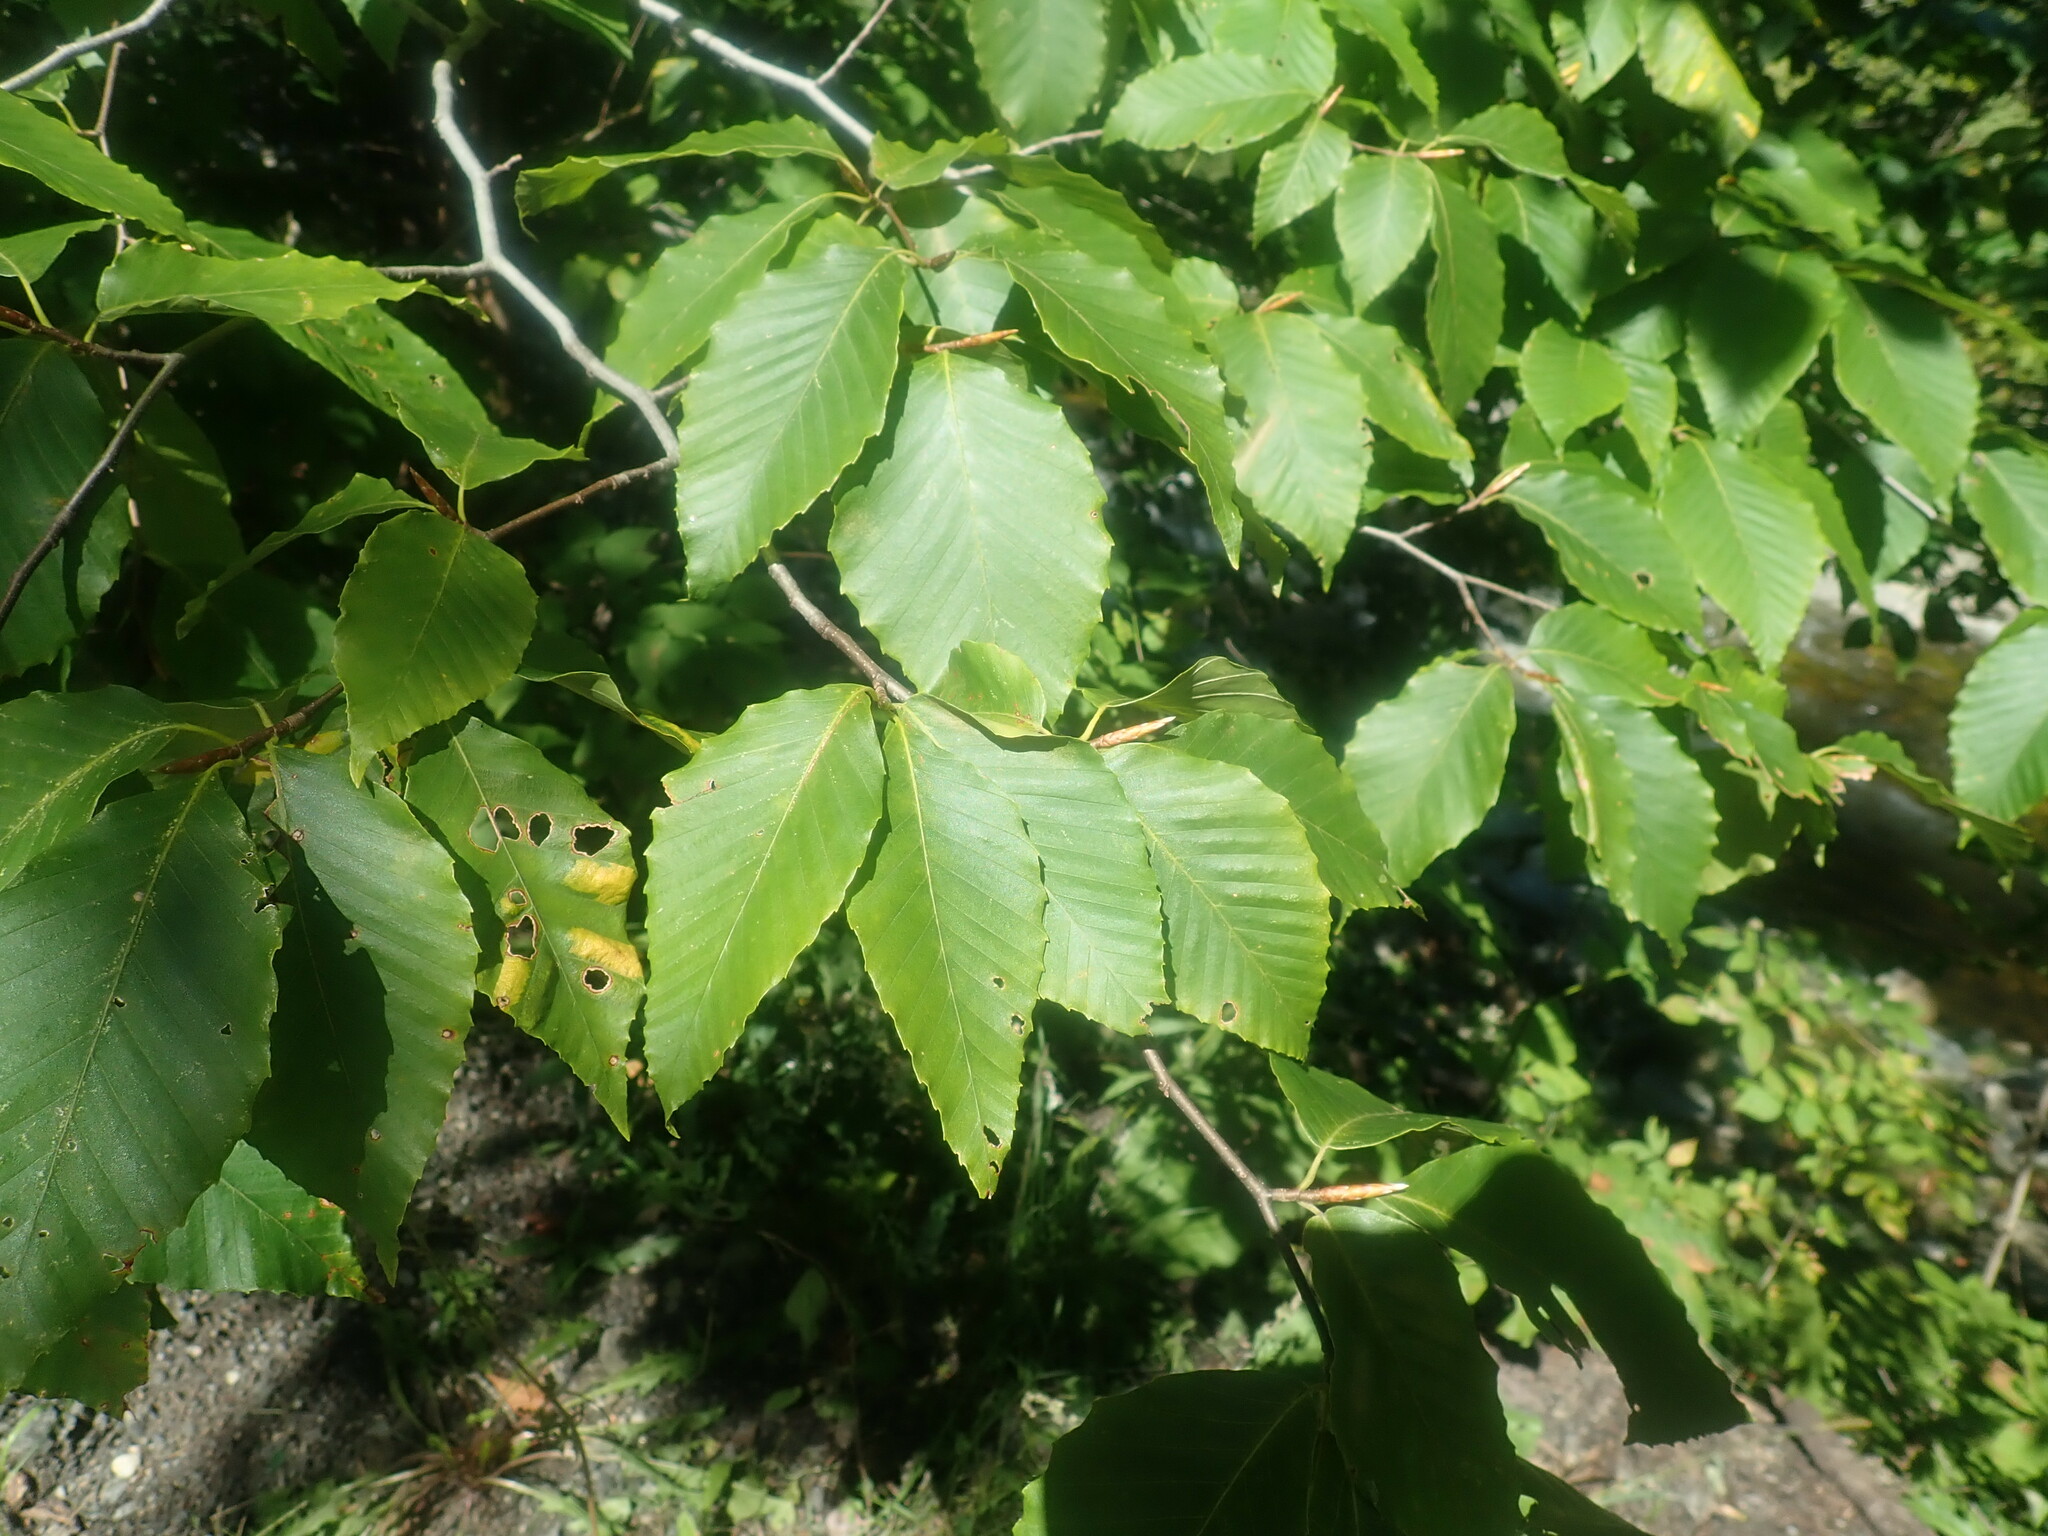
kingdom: Plantae
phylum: Tracheophyta
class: Magnoliopsida
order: Fagales
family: Fagaceae
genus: Fagus
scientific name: Fagus grandifolia
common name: American beech
